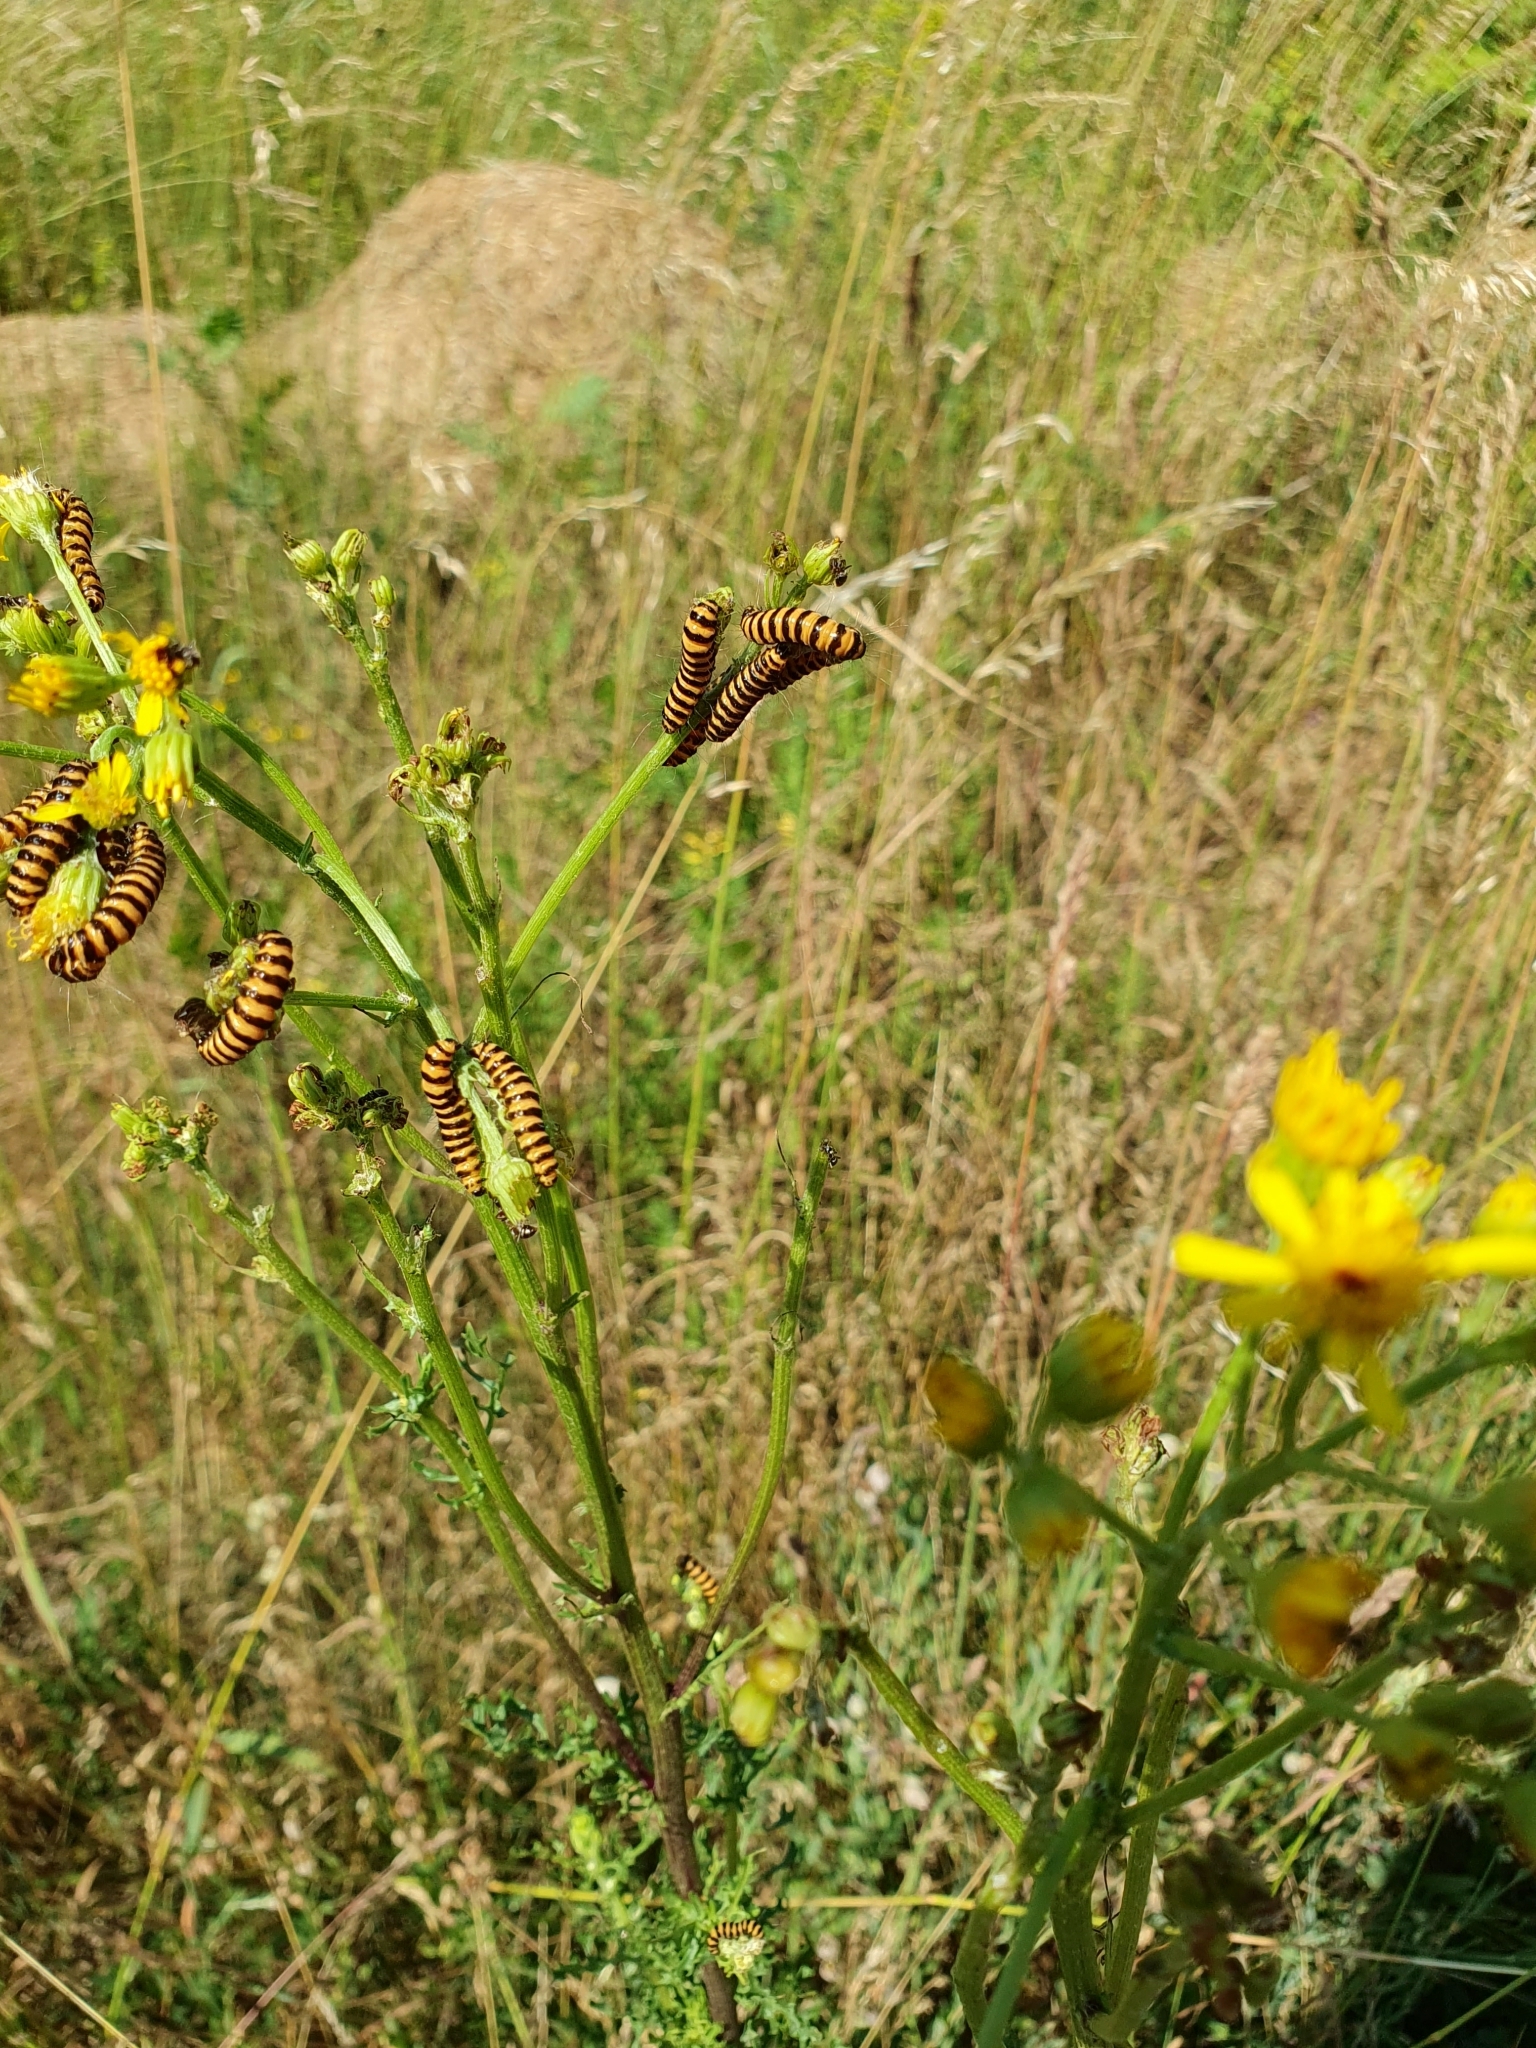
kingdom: Animalia
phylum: Arthropoda
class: Insecta
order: Lepidoptera
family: Erebidae
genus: Tyria
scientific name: Tyria jacobaeae
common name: Cinnabar
